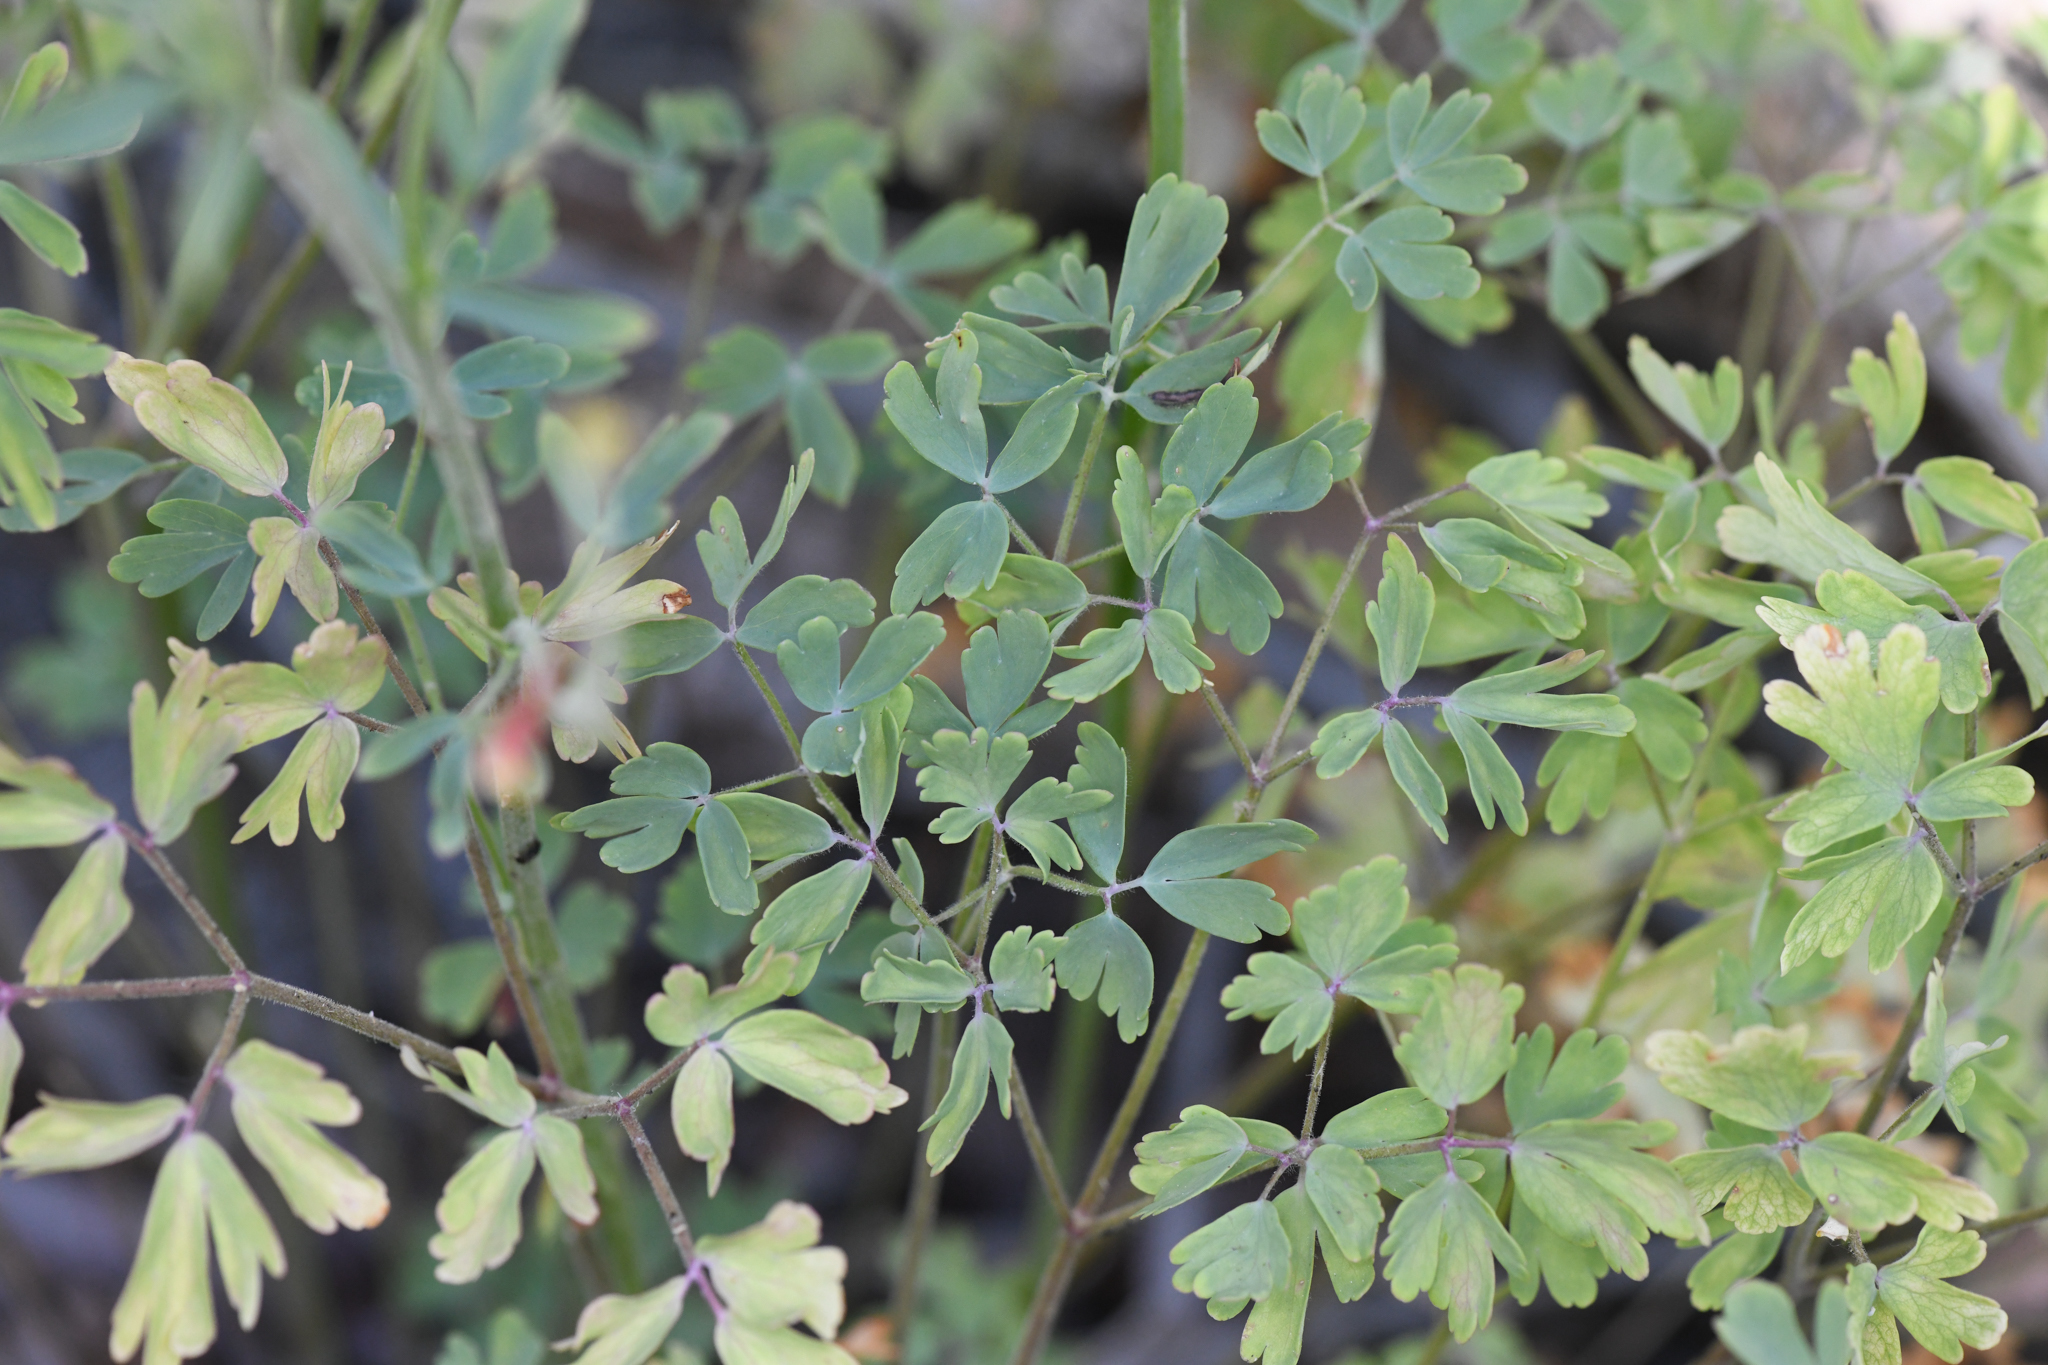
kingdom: Plantae
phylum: Tracheophyta
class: Magnoliopsida
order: Ranunculales
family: Ranunculaceae
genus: Aquilegia
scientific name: Aquilegia formosa
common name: Sitka columbine
